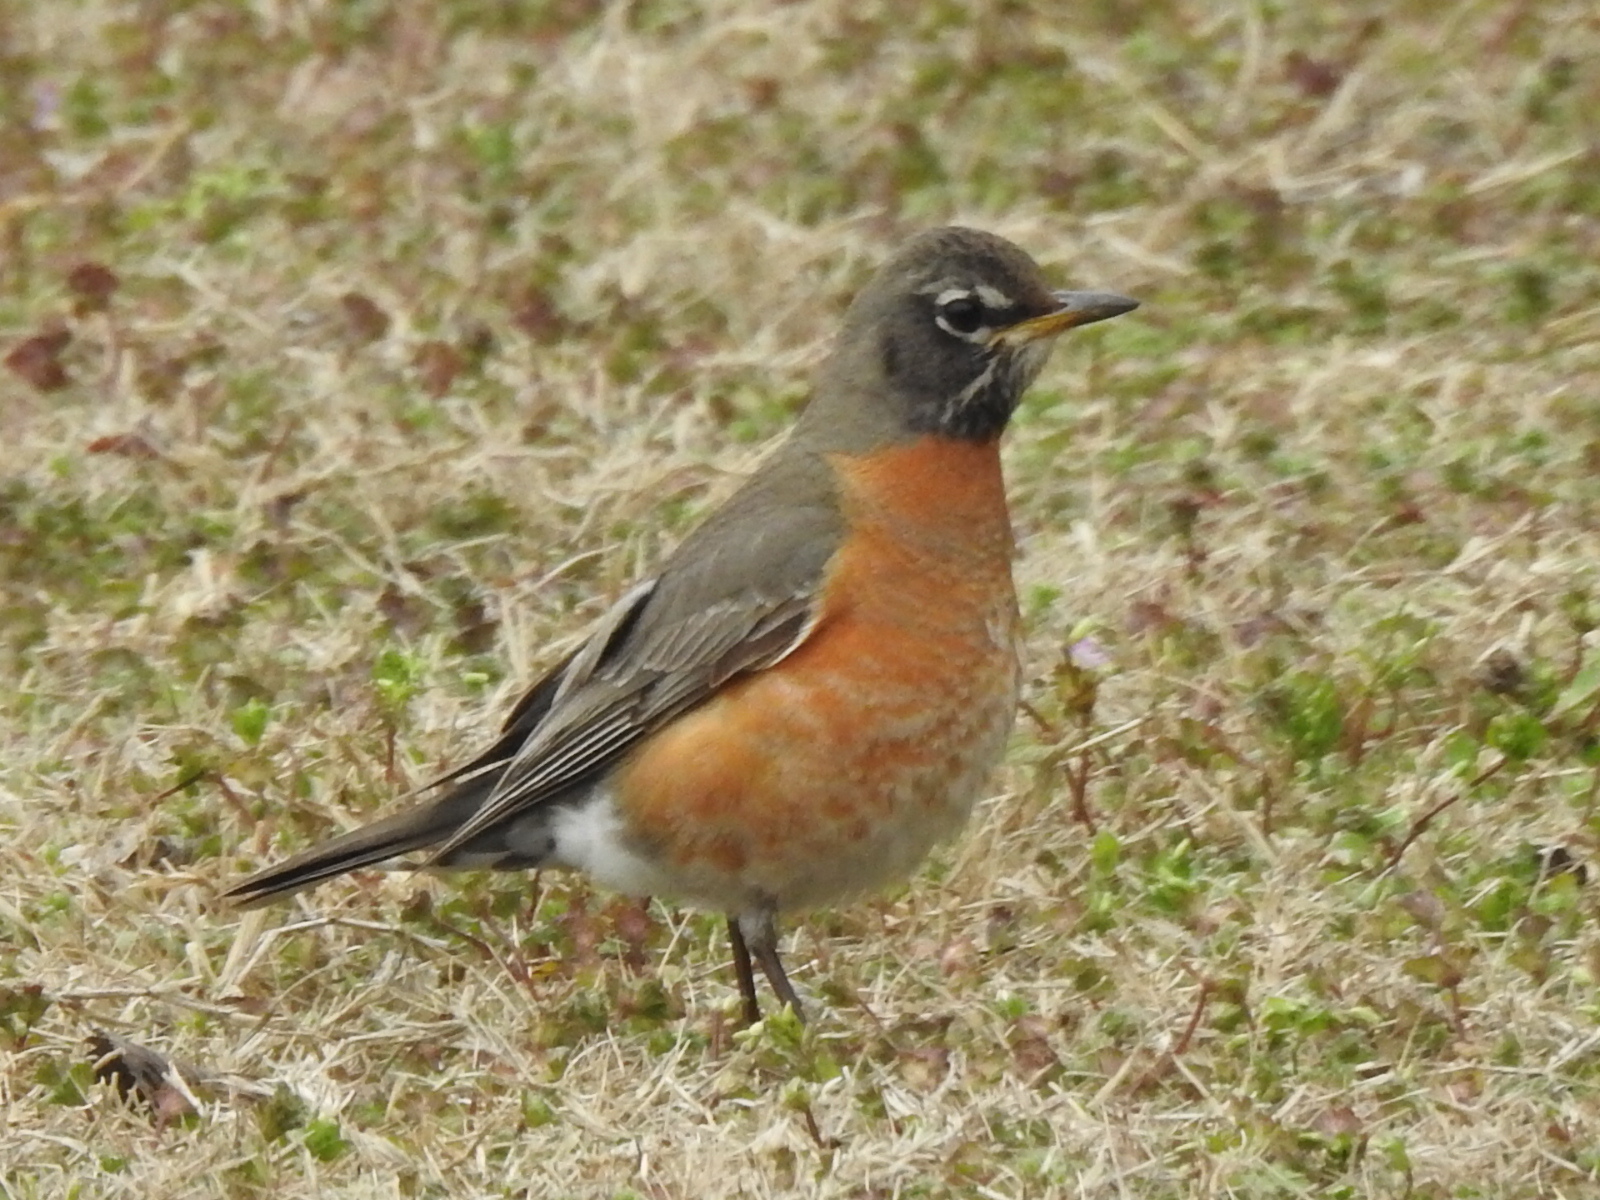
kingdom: Animalia
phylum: Chordata
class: Aves
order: Passeriformes
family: Turdidae
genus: Turdus
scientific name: Turdus migratorius
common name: American robin
